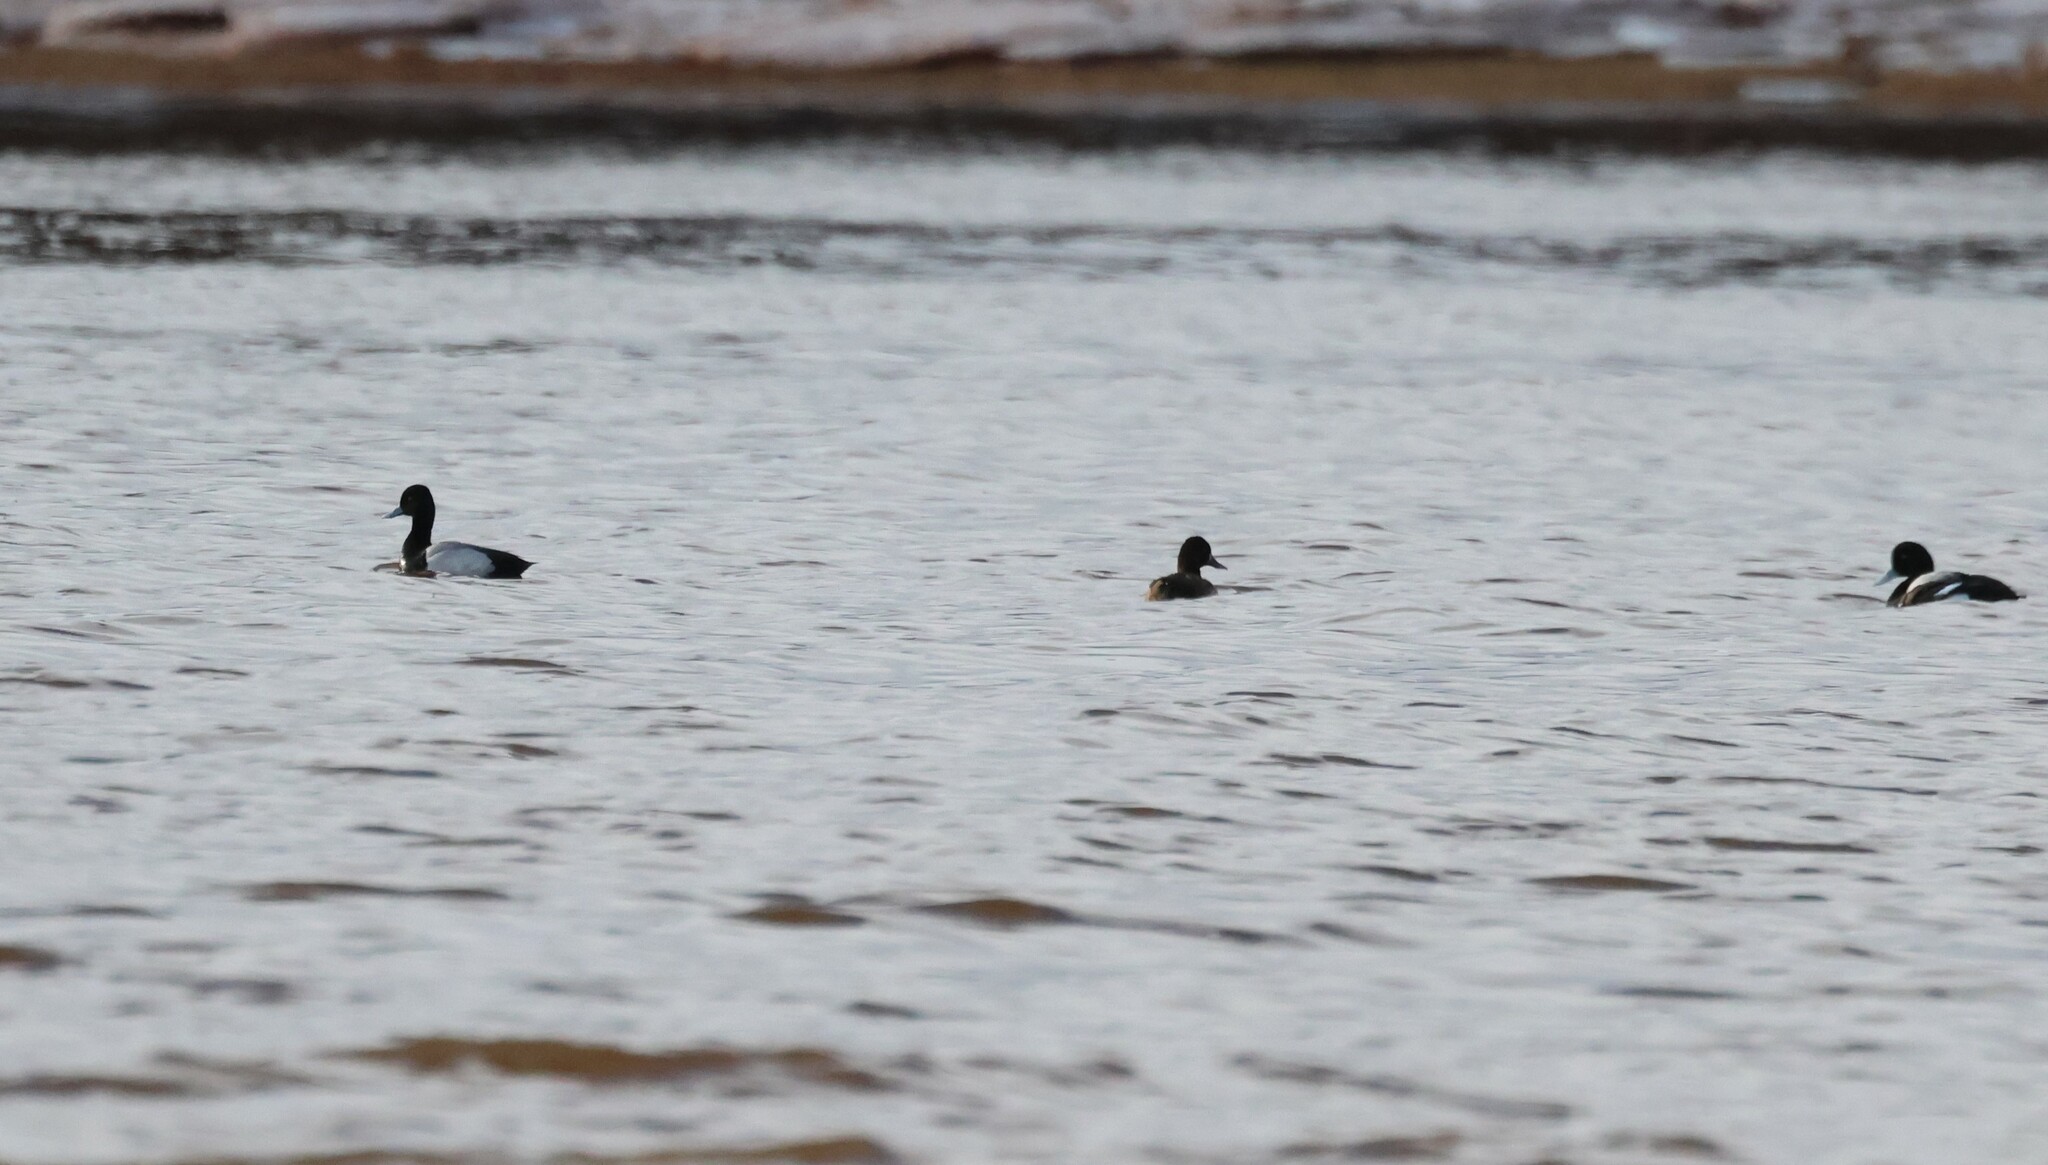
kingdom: Animalia
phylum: Chordata
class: Aves
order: Anseriformes
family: Anatidae
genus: Aythya
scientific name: Aythya affinis
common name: Lesser scaup
